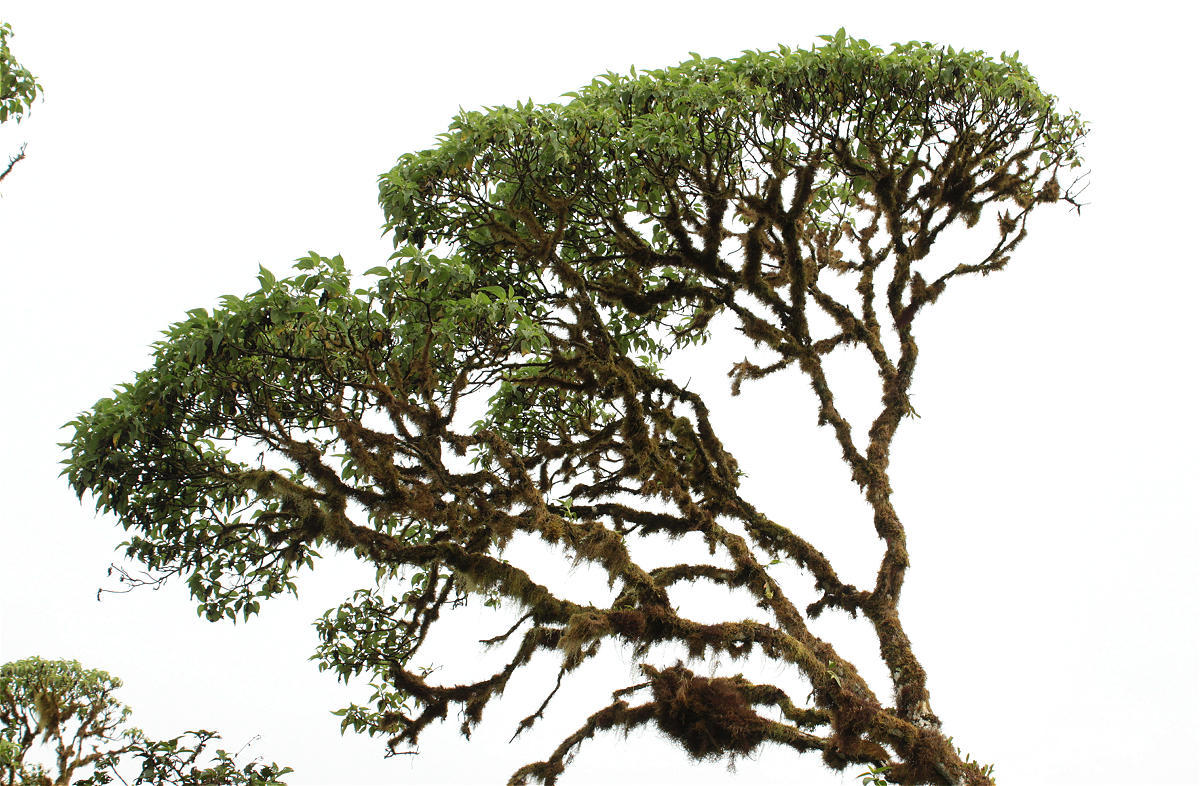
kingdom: Plantae
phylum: Tracheophyta
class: Magnoliopsida
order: Asterales
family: Asteraceae
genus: Scalesia
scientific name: Scalesia pedunculata
